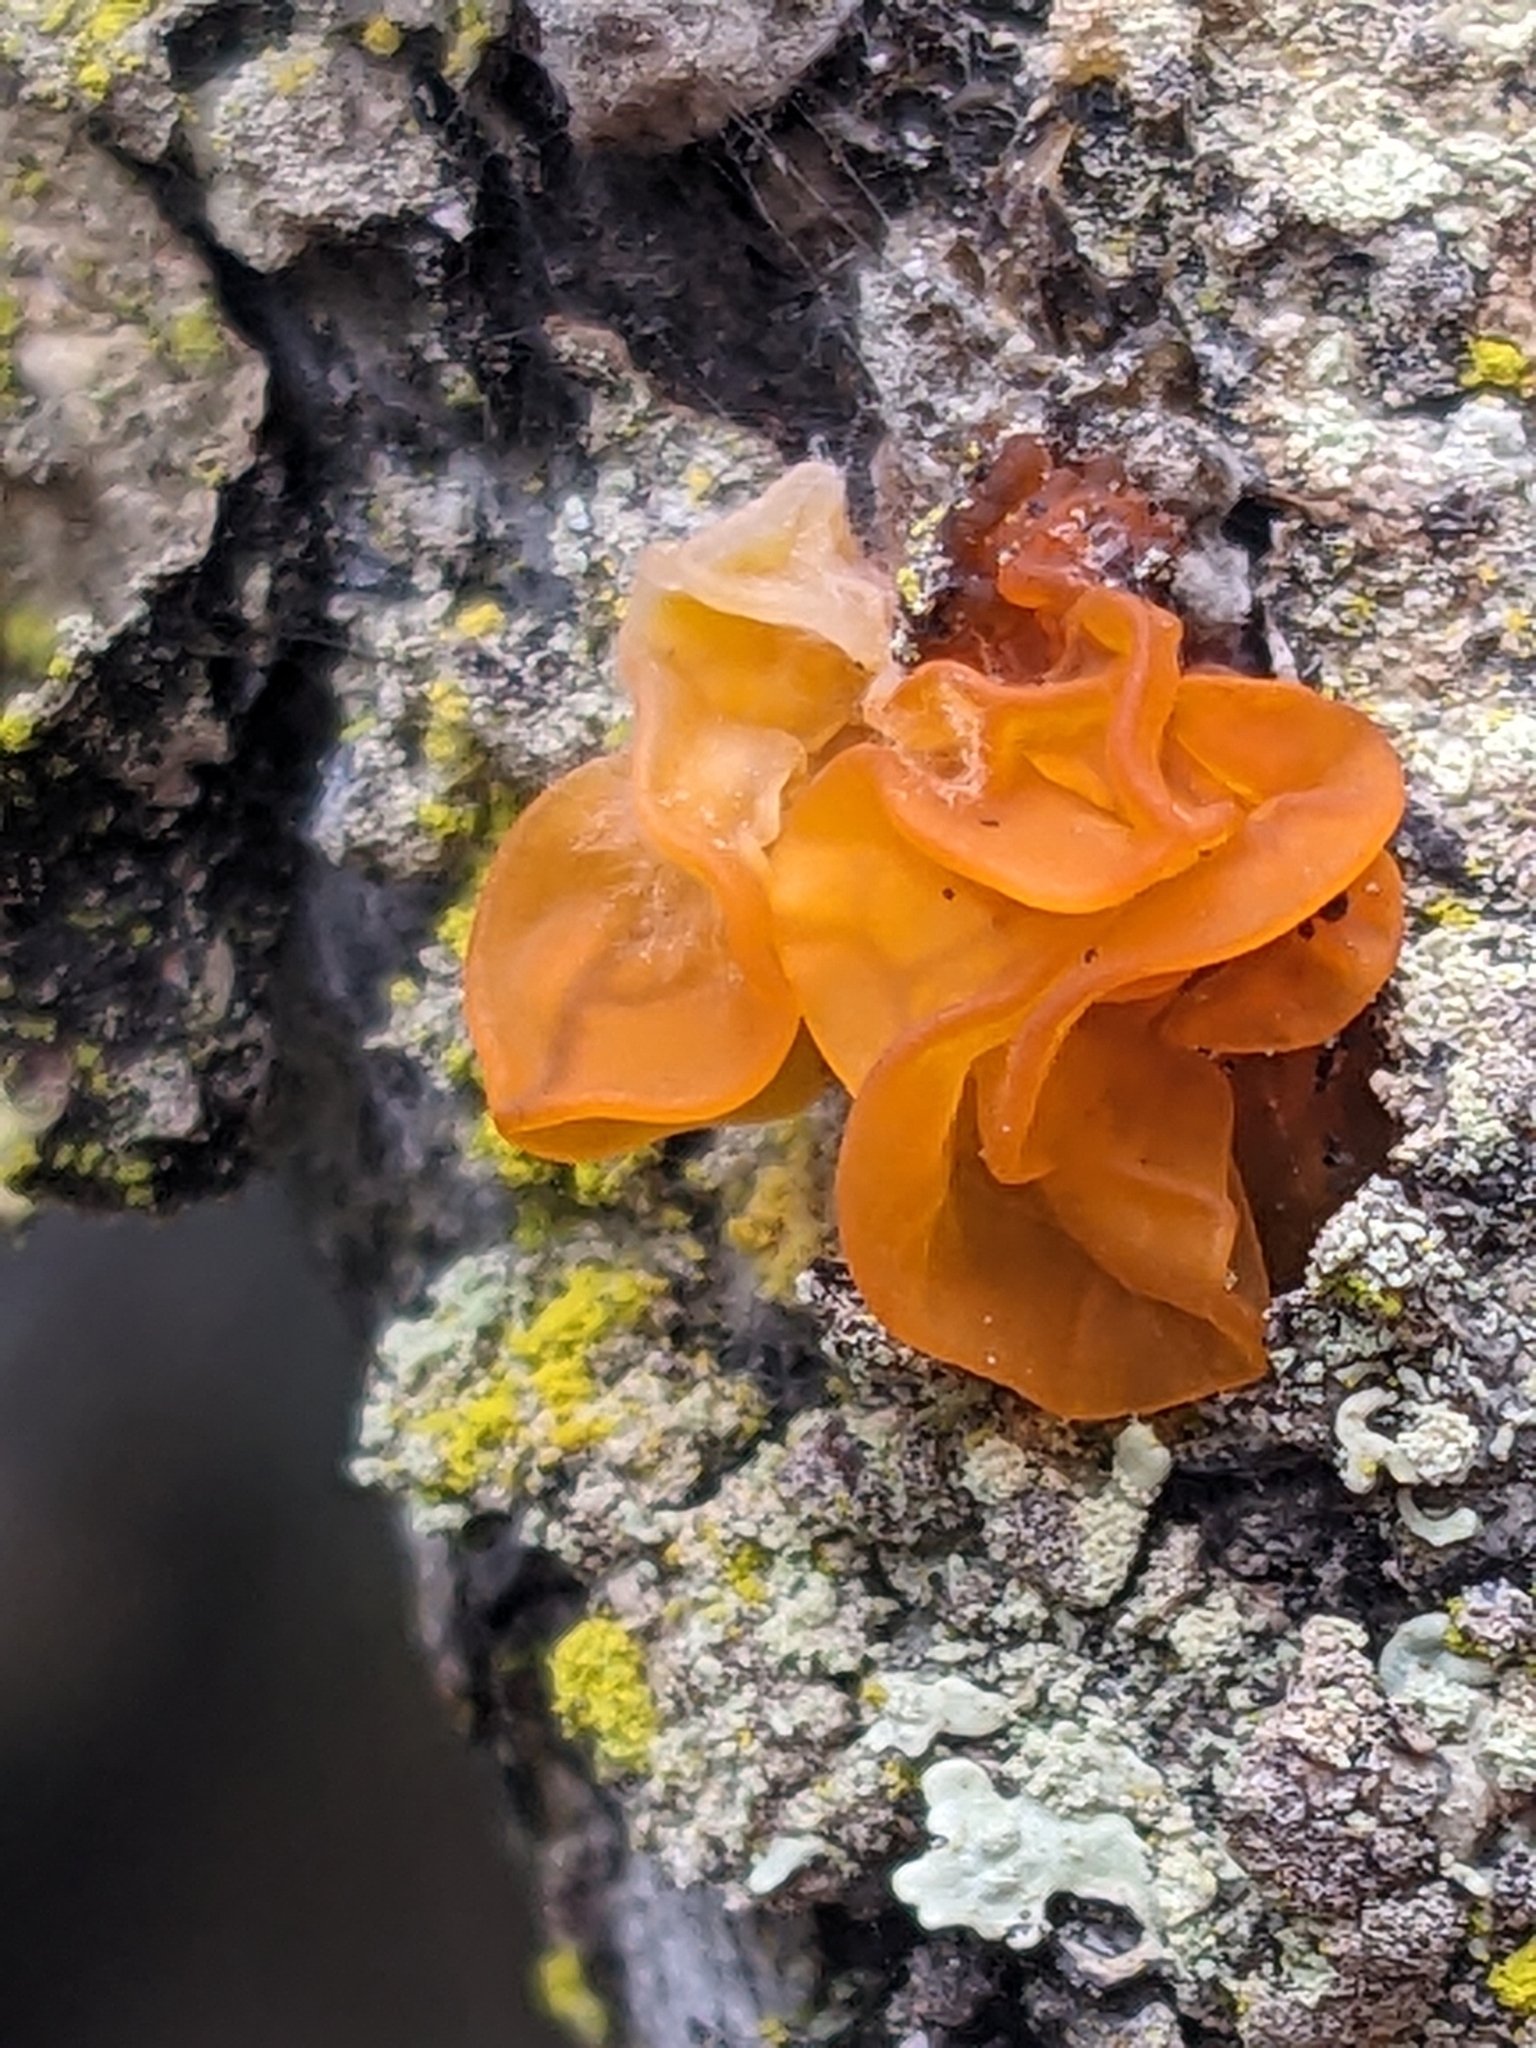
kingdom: Fungi
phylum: Basidiomycota
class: Tremellomycetes
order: Tremellales
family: Naemateliaceae
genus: Naematelia
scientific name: Naematelia aurantia
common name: Golden ear
